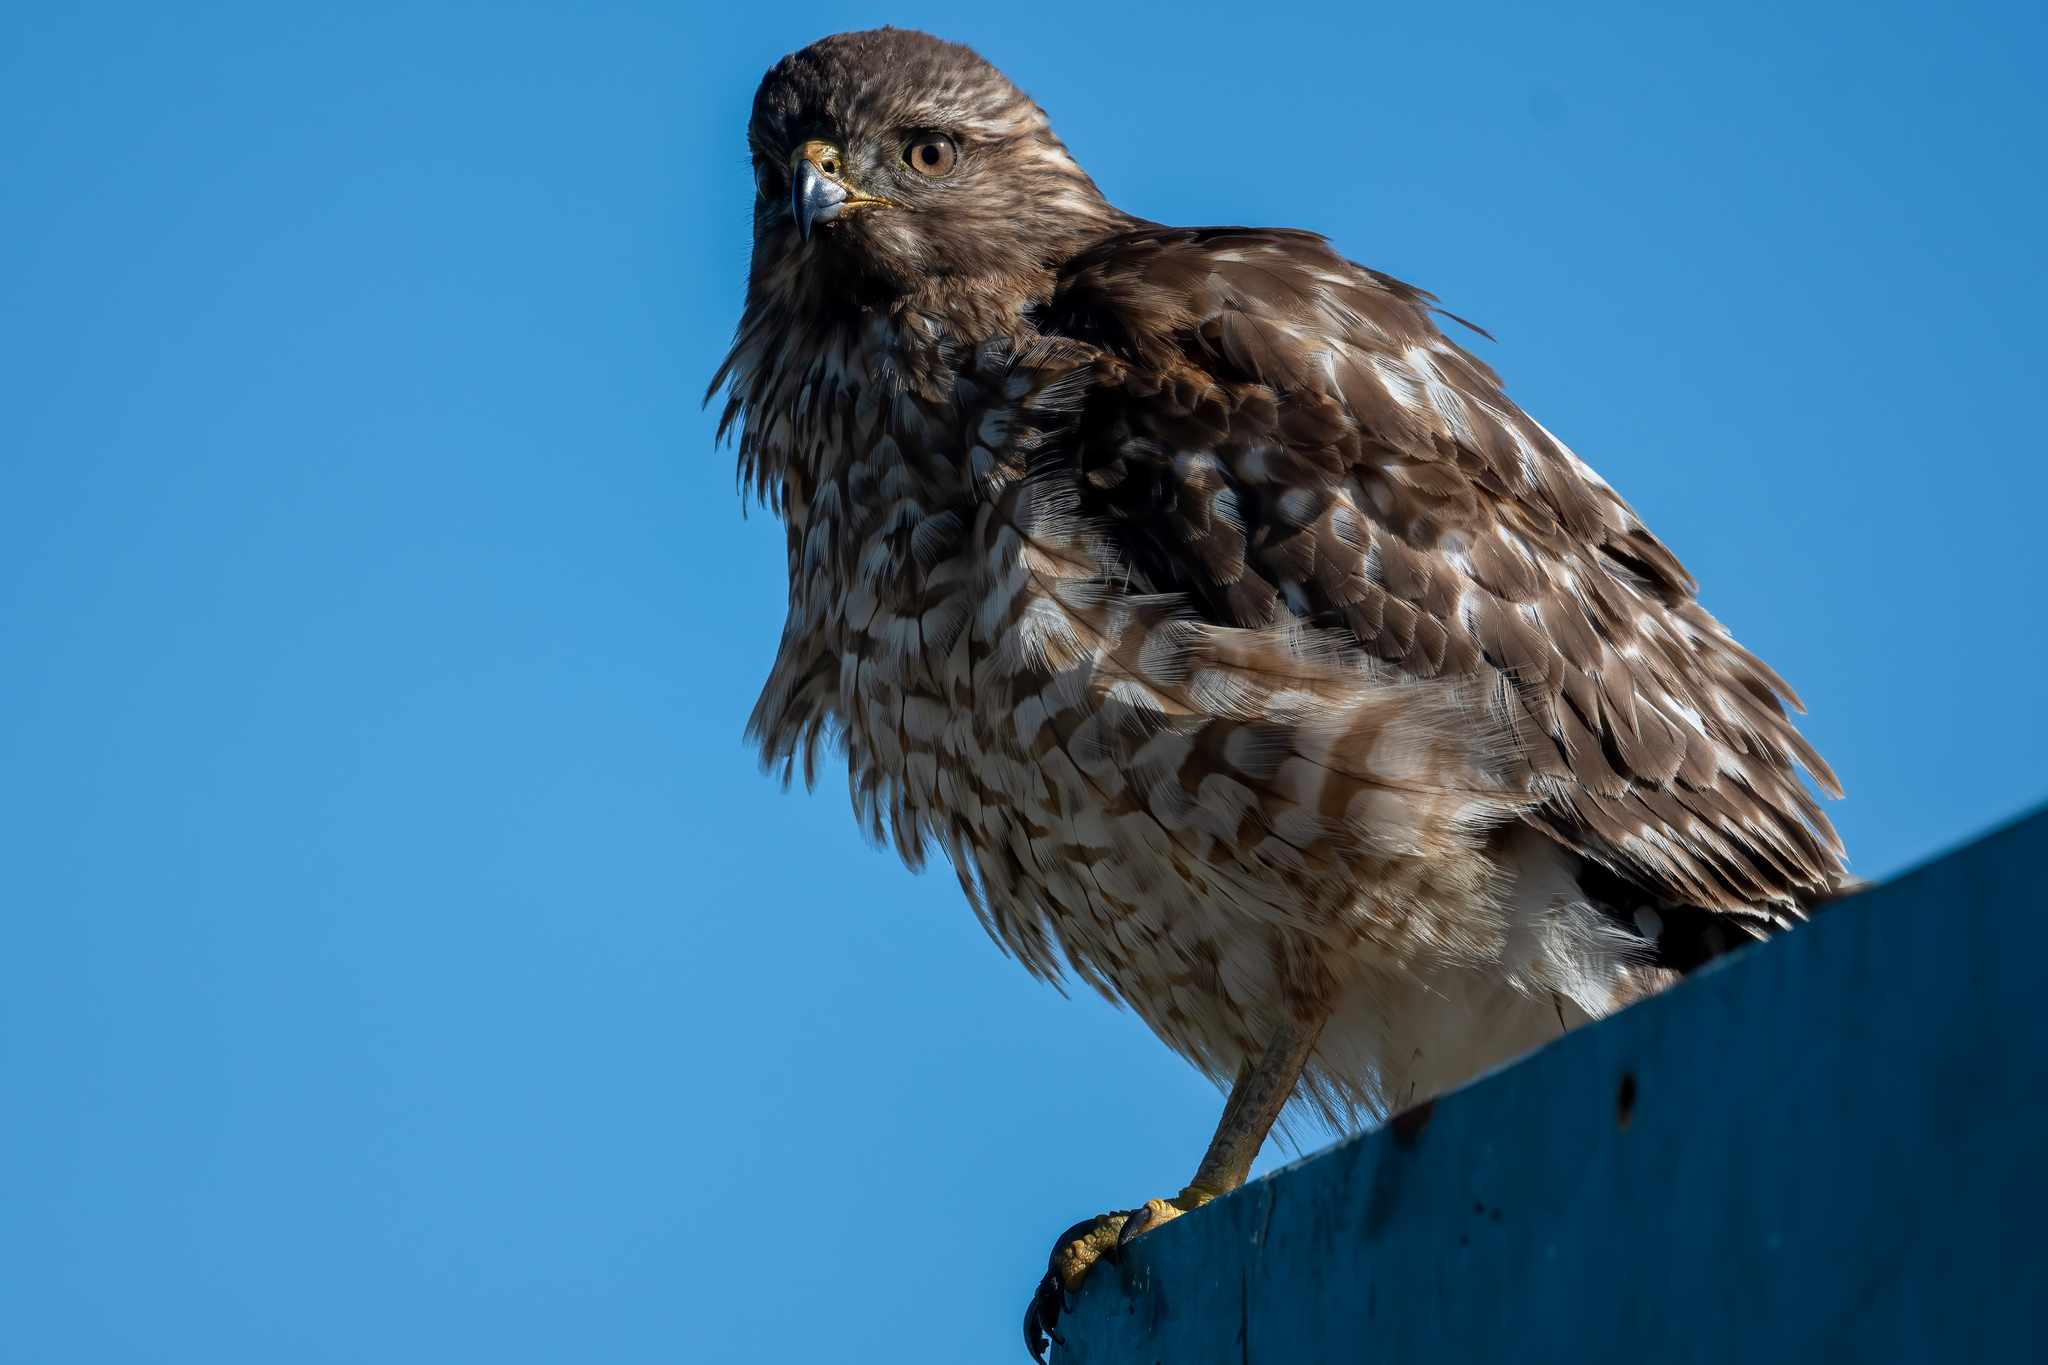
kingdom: Animalia
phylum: Chordata
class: Aves
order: Accipitriformes
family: Accipitridae
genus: Buteo
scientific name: Buteo lineatus
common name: Red-shouldered hawk
